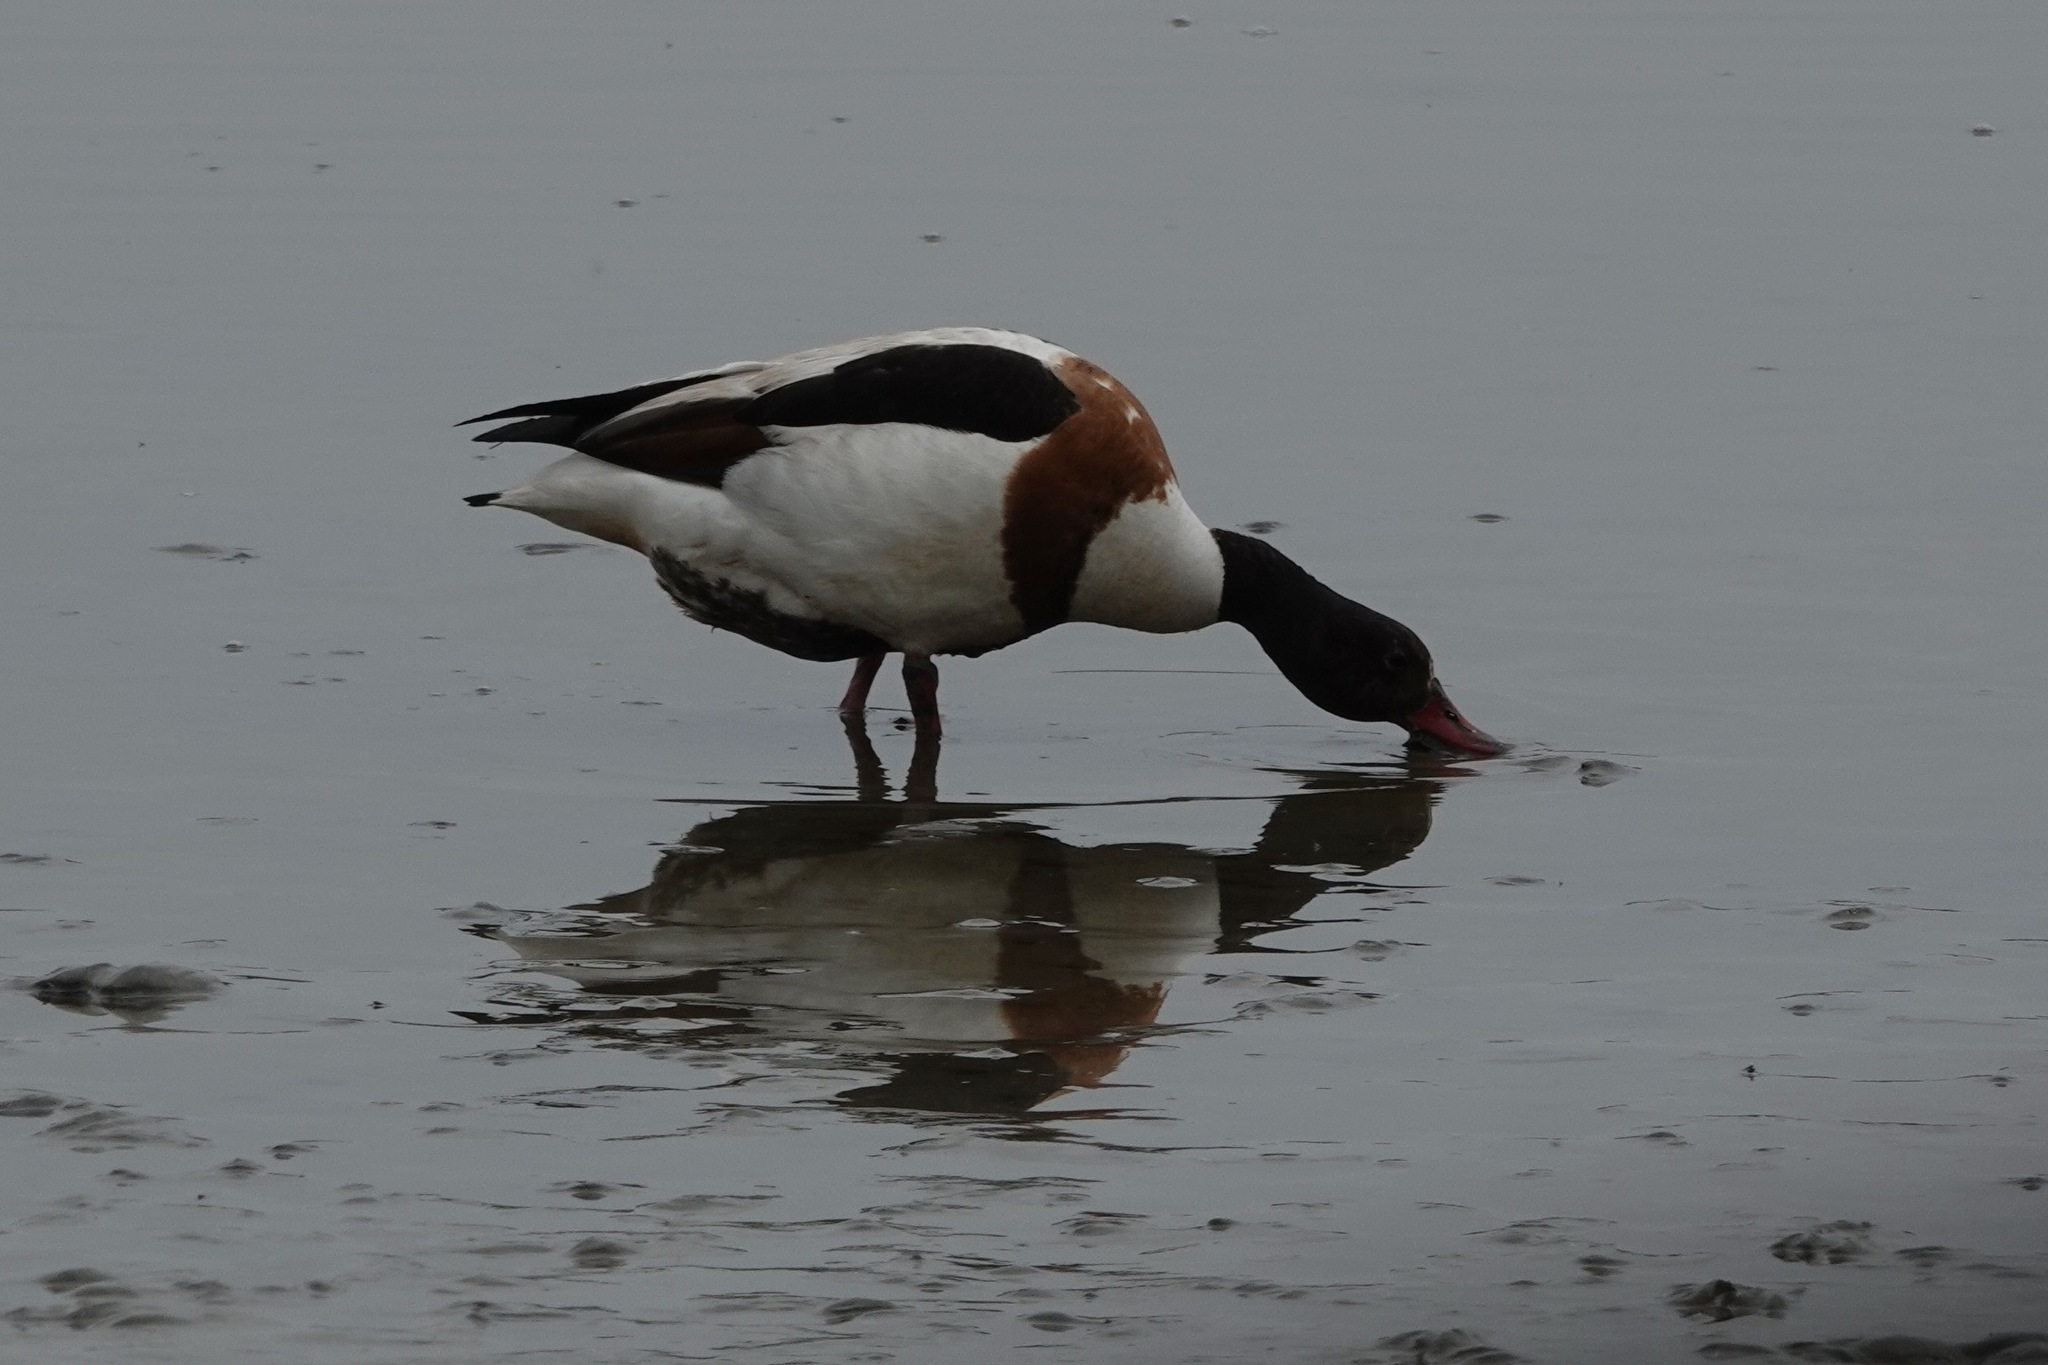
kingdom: Animalia
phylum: Chordata
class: Aves
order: Anseriformes
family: Anatidae
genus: Tadorna
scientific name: Tadorna tadorna
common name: Common shelduck
